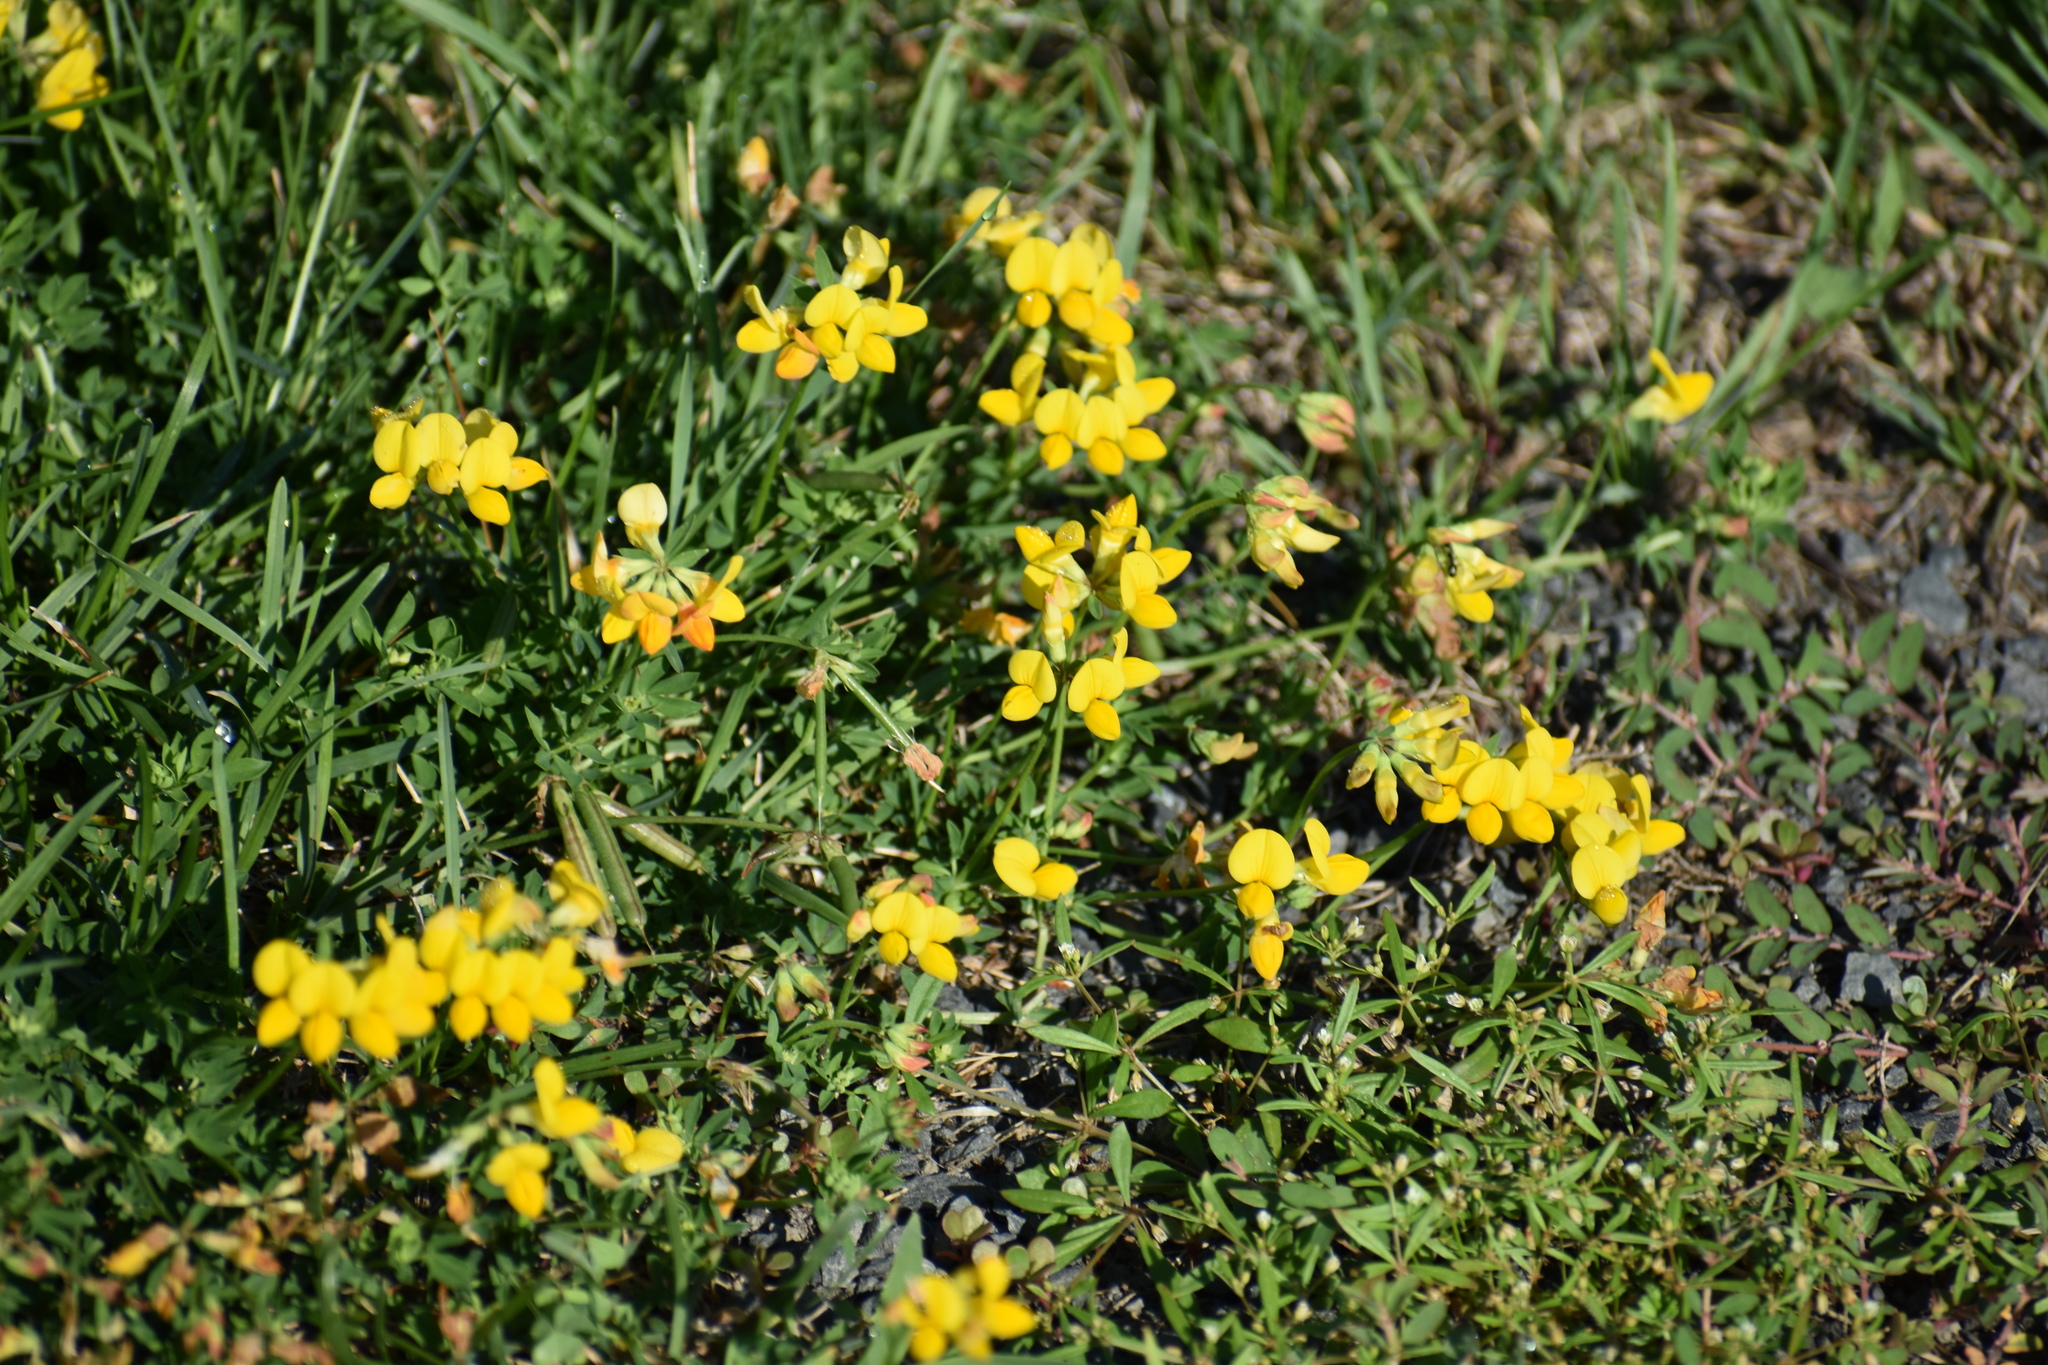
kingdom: Plantae
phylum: Tracheophyta
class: Magnoliopsida
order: Fabales
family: Fabaceae
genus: Lotus
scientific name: Lotus corniculatus
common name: Common bird's-foot-trefoil
